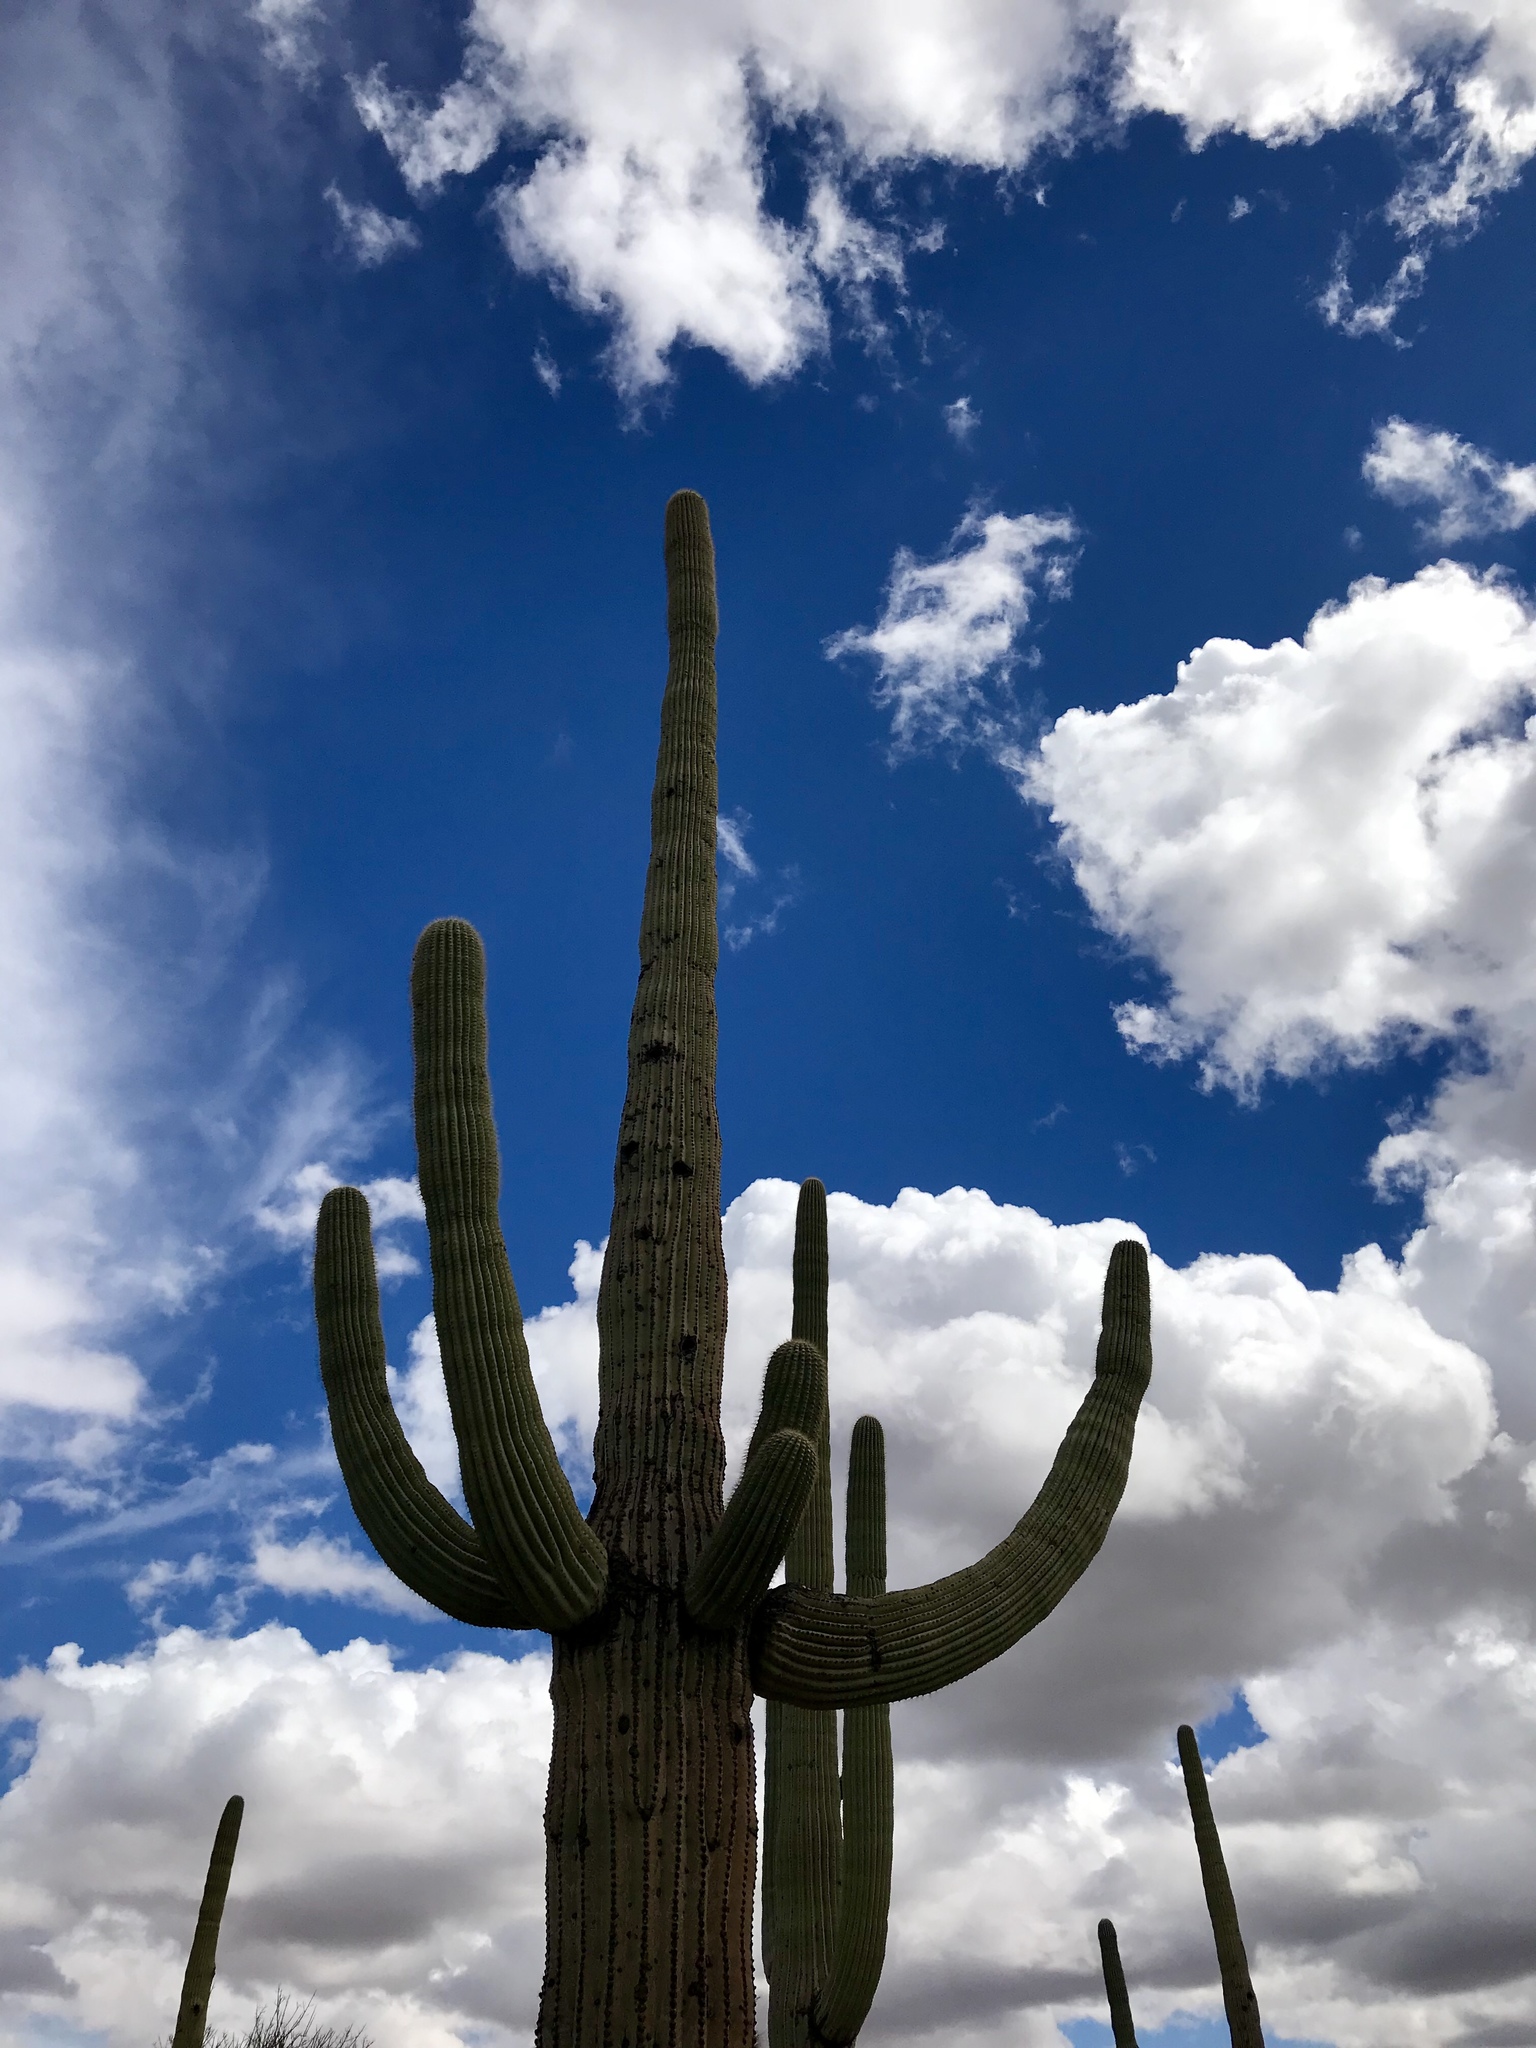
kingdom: Plantae
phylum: Tracheophyta
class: Magnoliopsida
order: Caryophyllales
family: Cactaceae
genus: Carnegiea
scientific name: Carnegiea gigantea
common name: Saguaro
